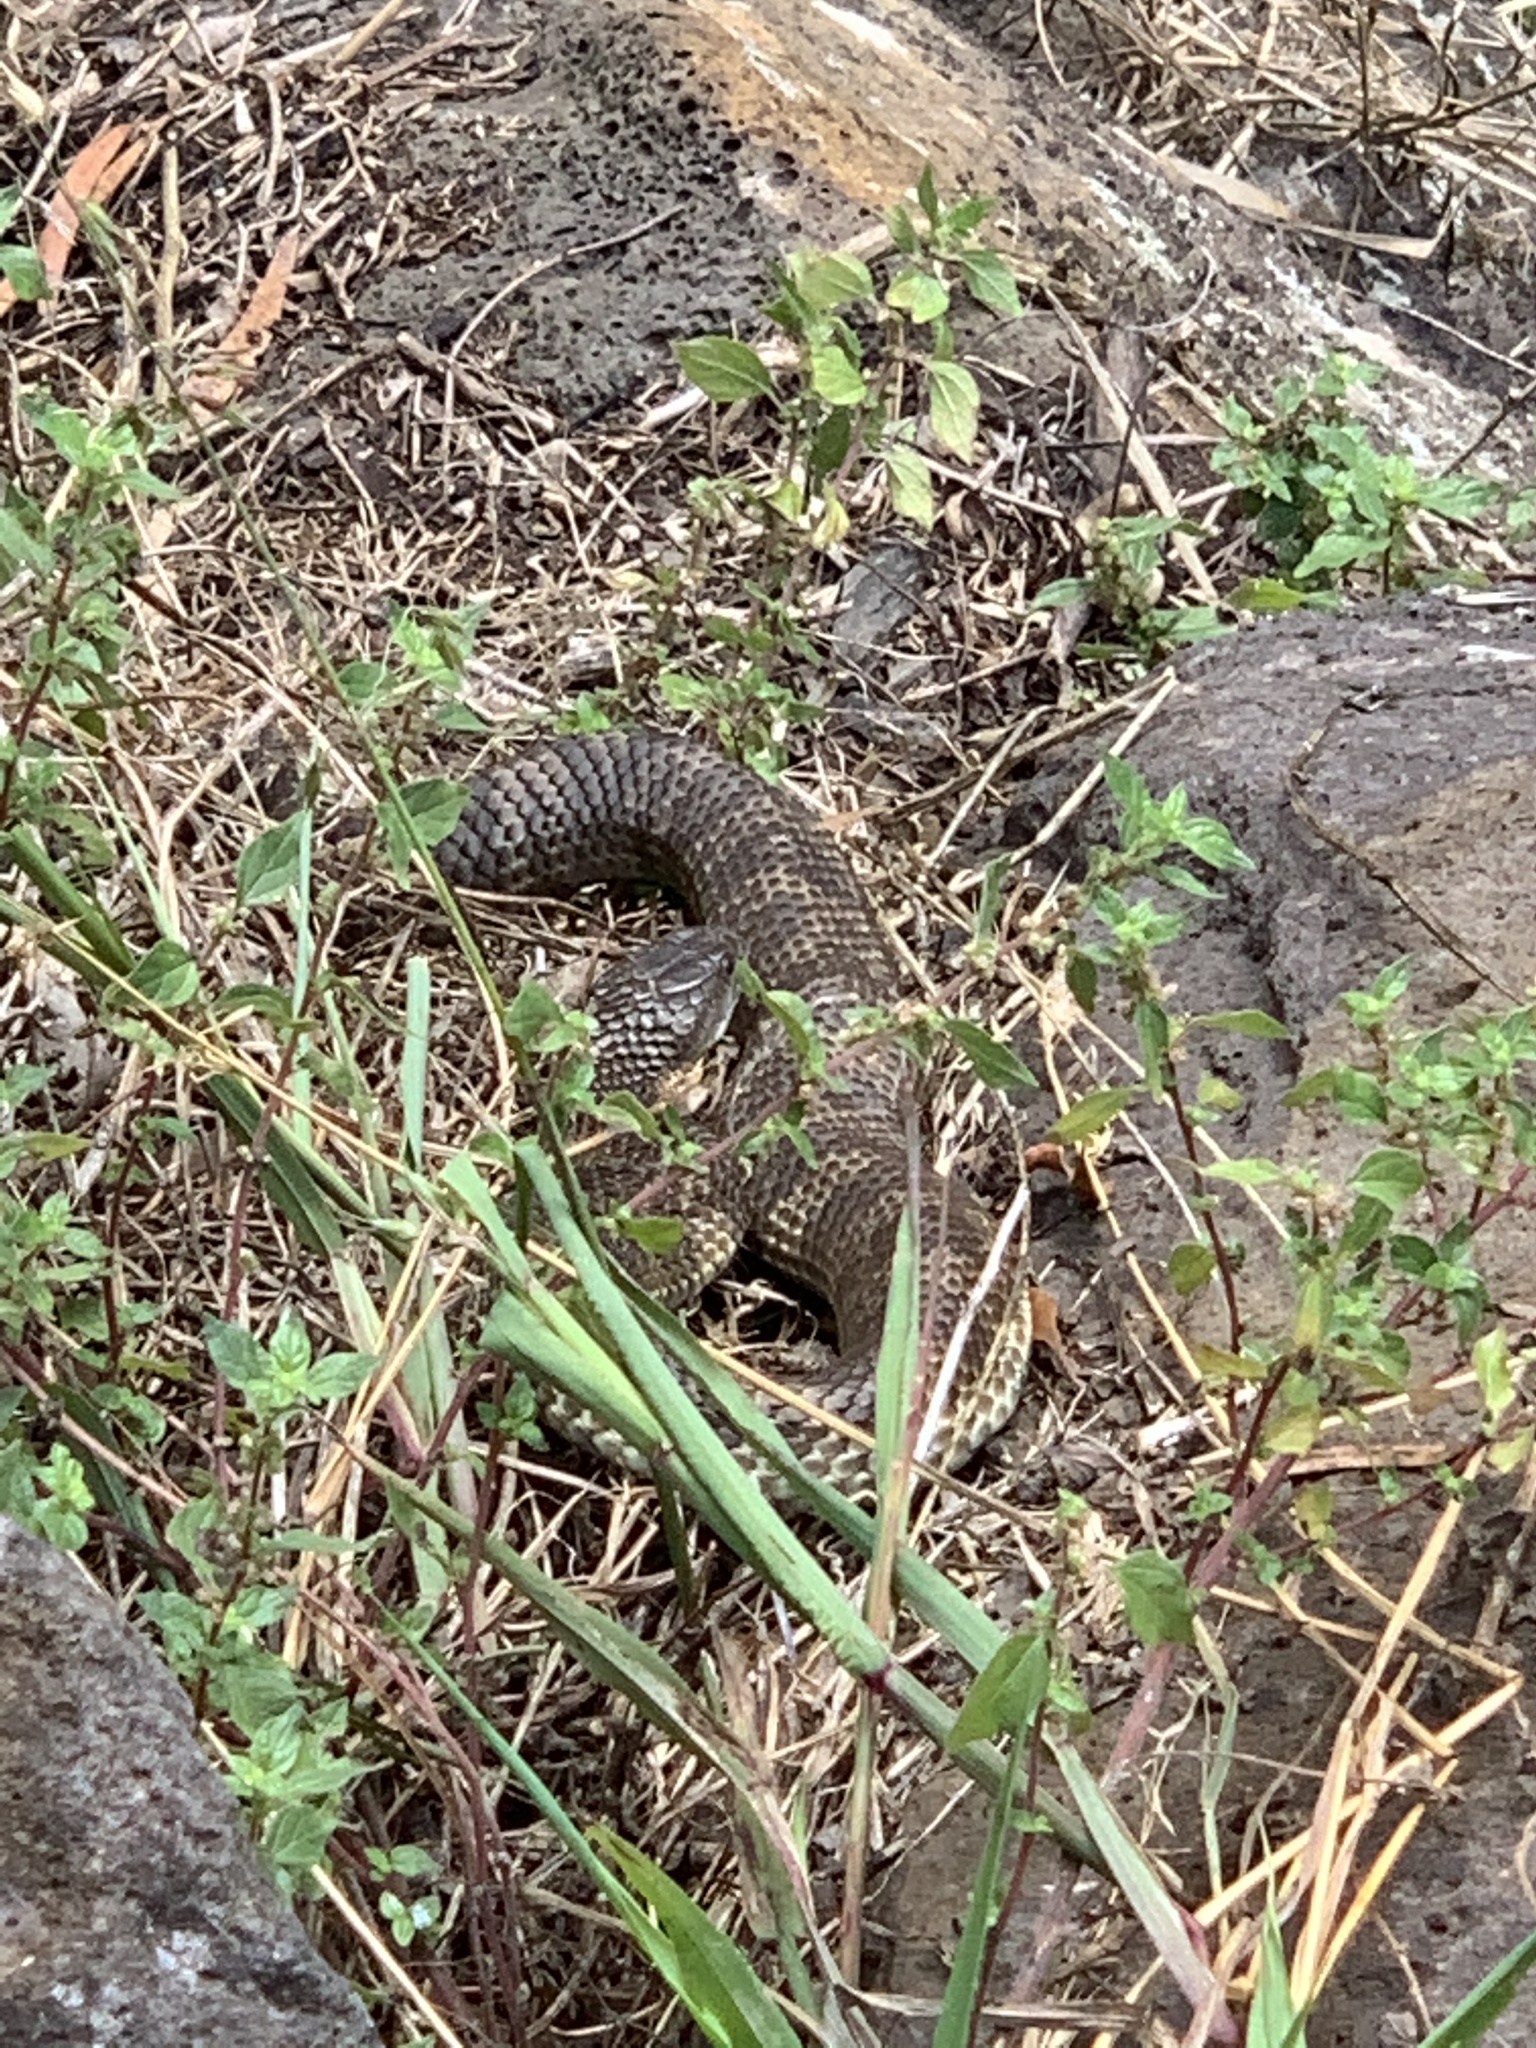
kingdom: Animalia
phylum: Chordata
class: Squamata
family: Elapidae
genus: Notechis
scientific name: Notechis scutatus
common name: Mainland tiger snake
